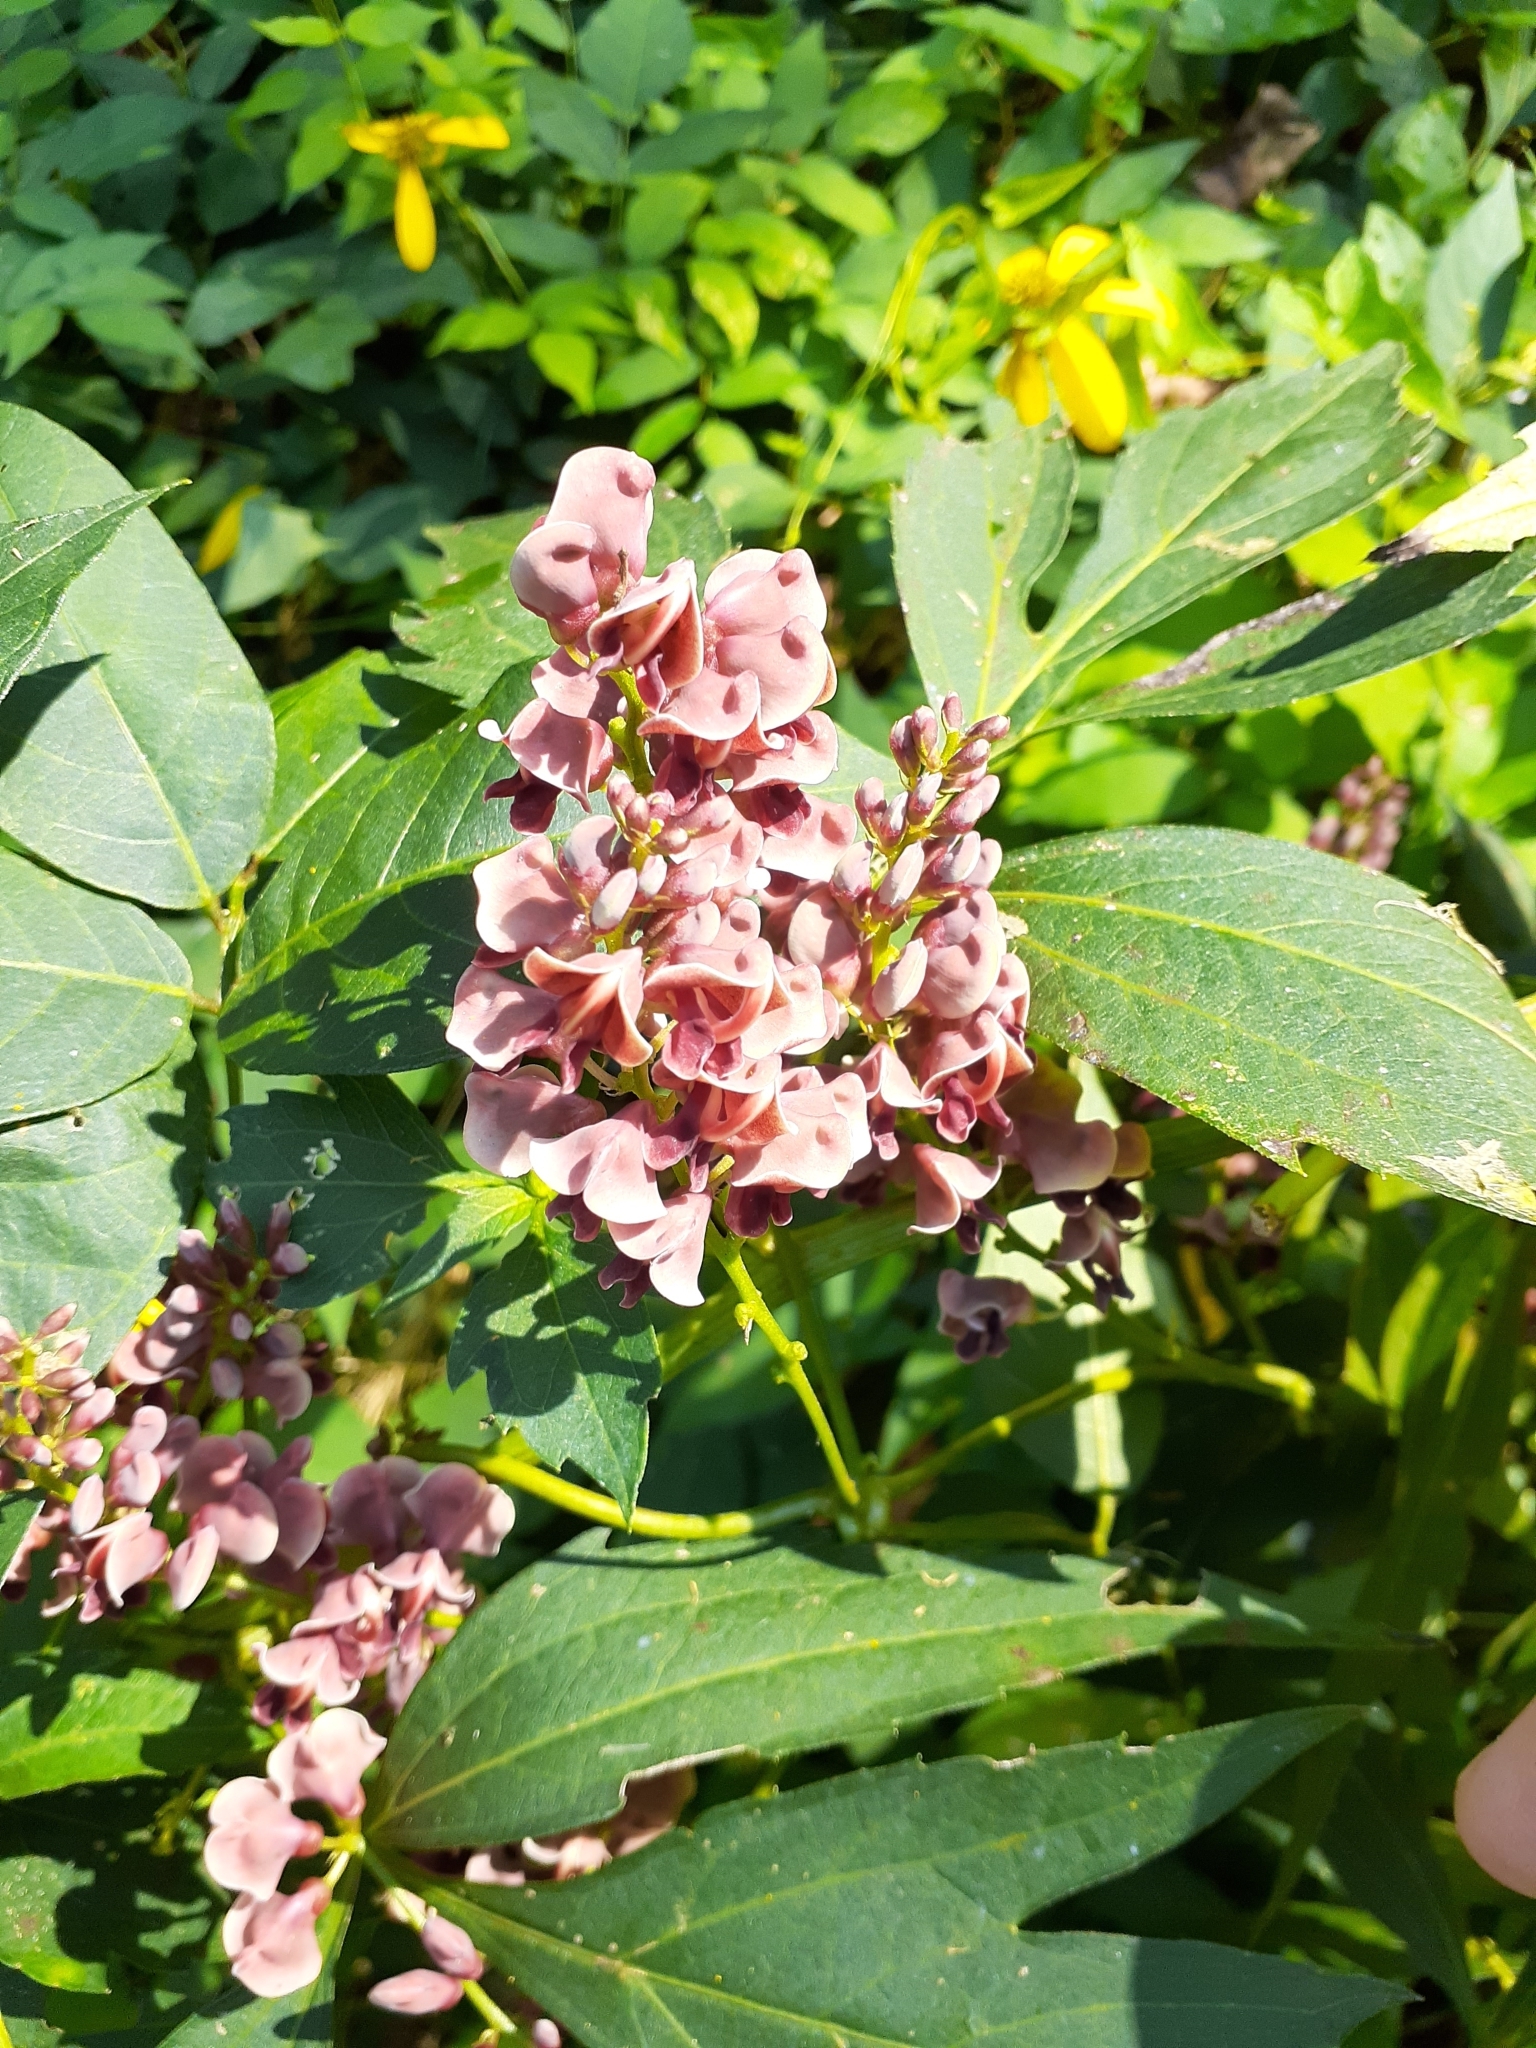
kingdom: Plantae
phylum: Tracheophyta
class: Magnoliopsida
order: Fabales
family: Fabaceae
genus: Apios
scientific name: Apios americana
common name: American potato-bean
